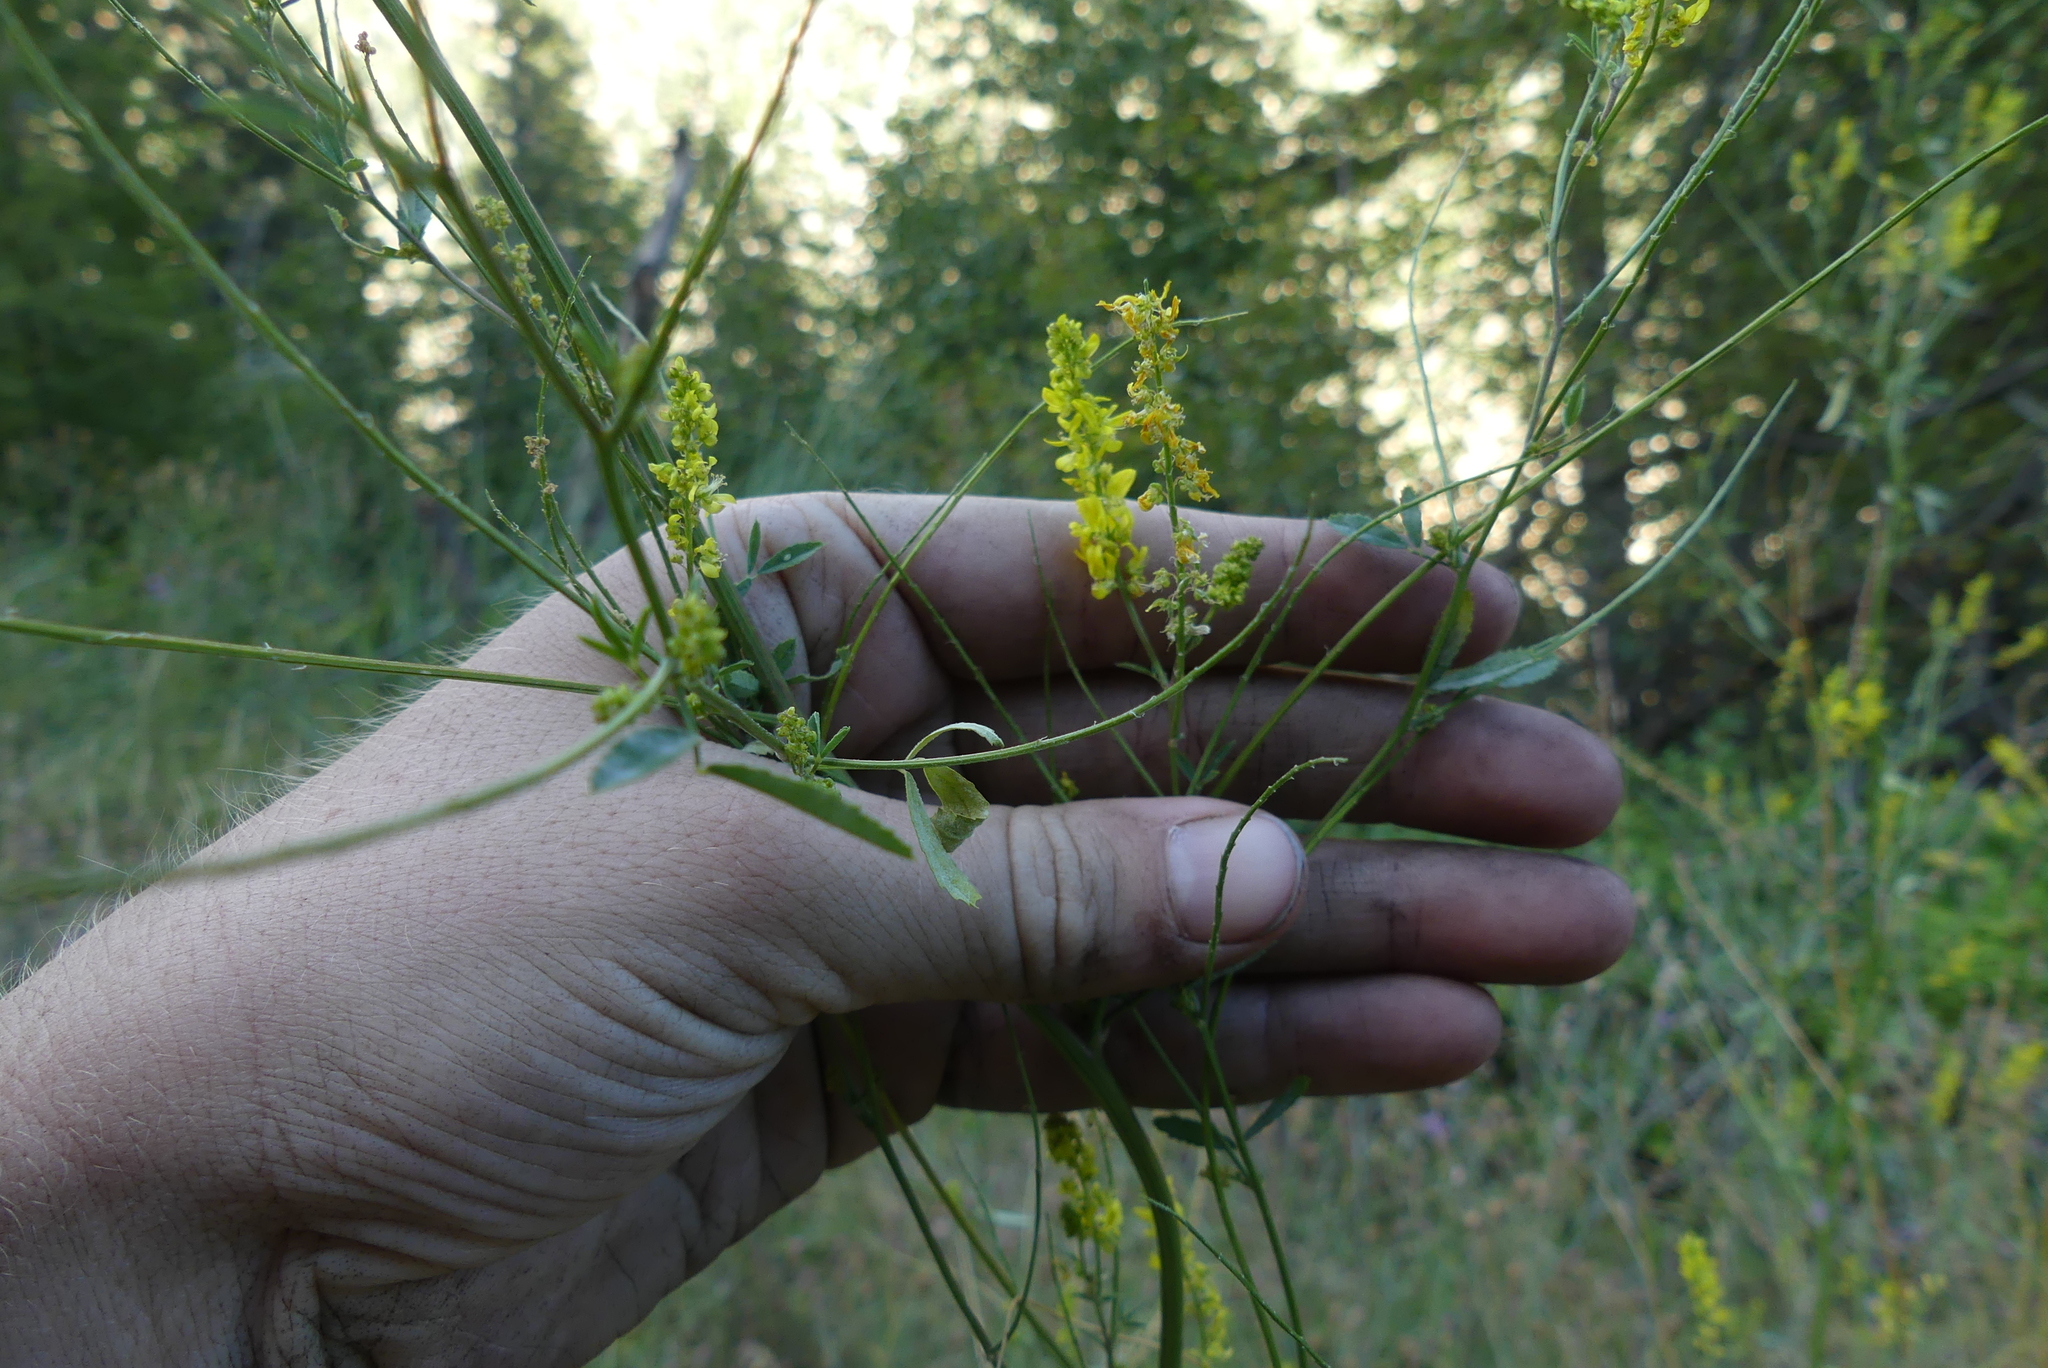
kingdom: Plantae
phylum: Tracheophyta
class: Magnoliopsida
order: Fabales
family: Fabaceae
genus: Melilotus
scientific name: Melilotus officinalis
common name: Sweetclover
